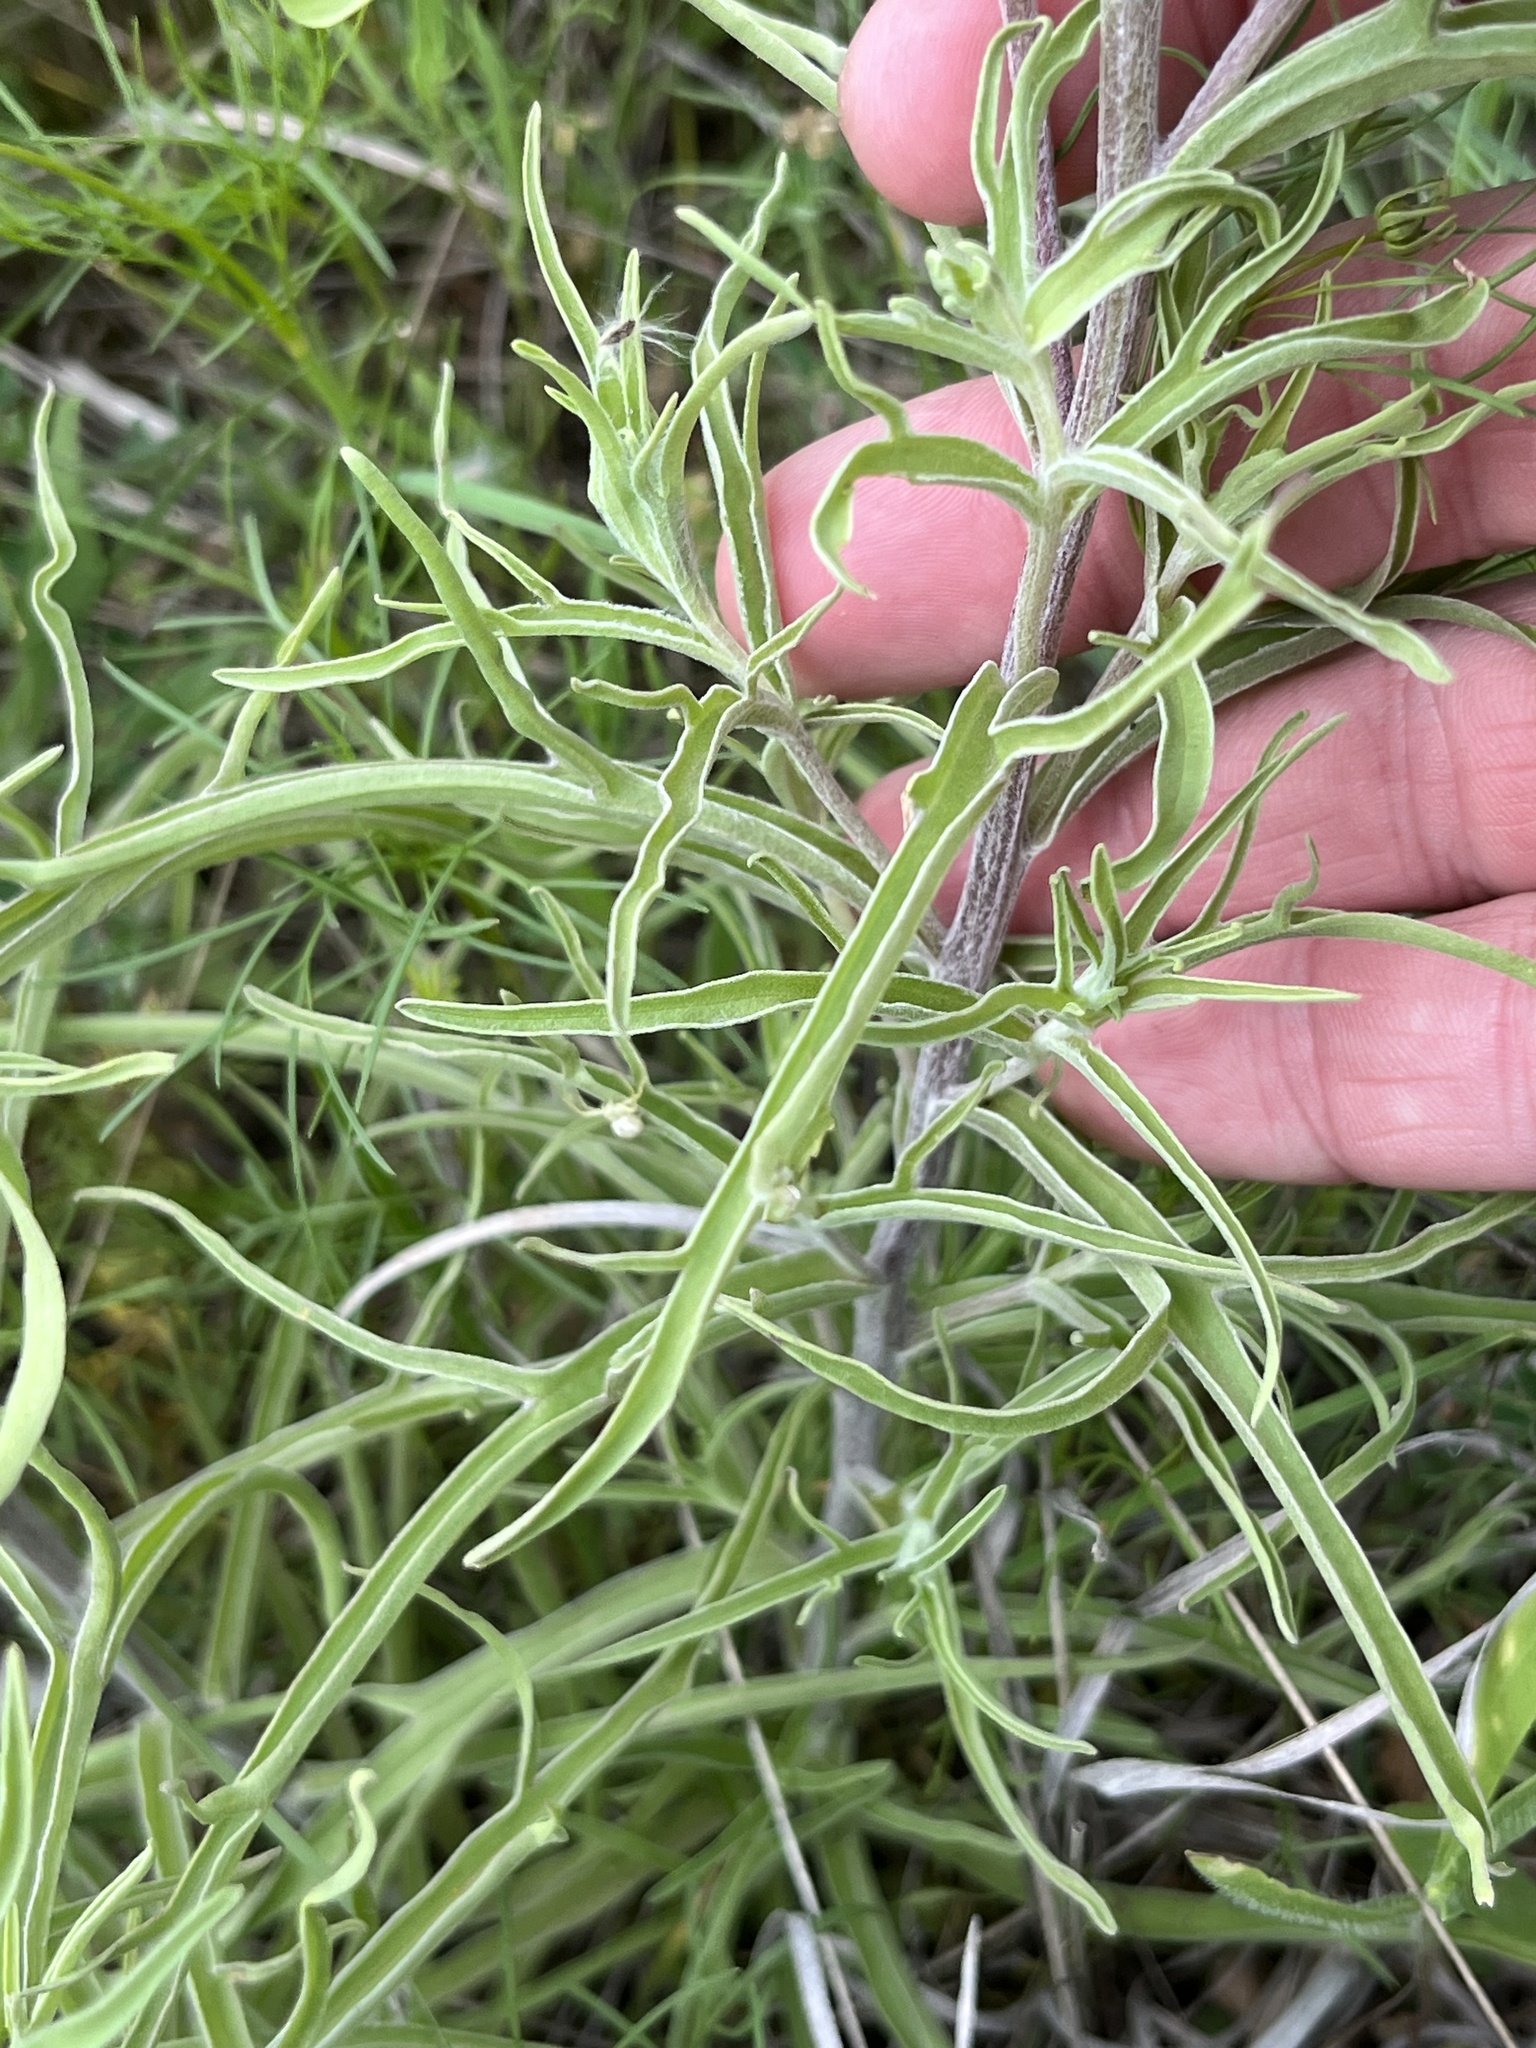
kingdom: Plantae
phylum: Tracheophyta
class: Magnoliopsida
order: Lamiales
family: Orobanchaceae
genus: Castilleja
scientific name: Castilleja citrina
